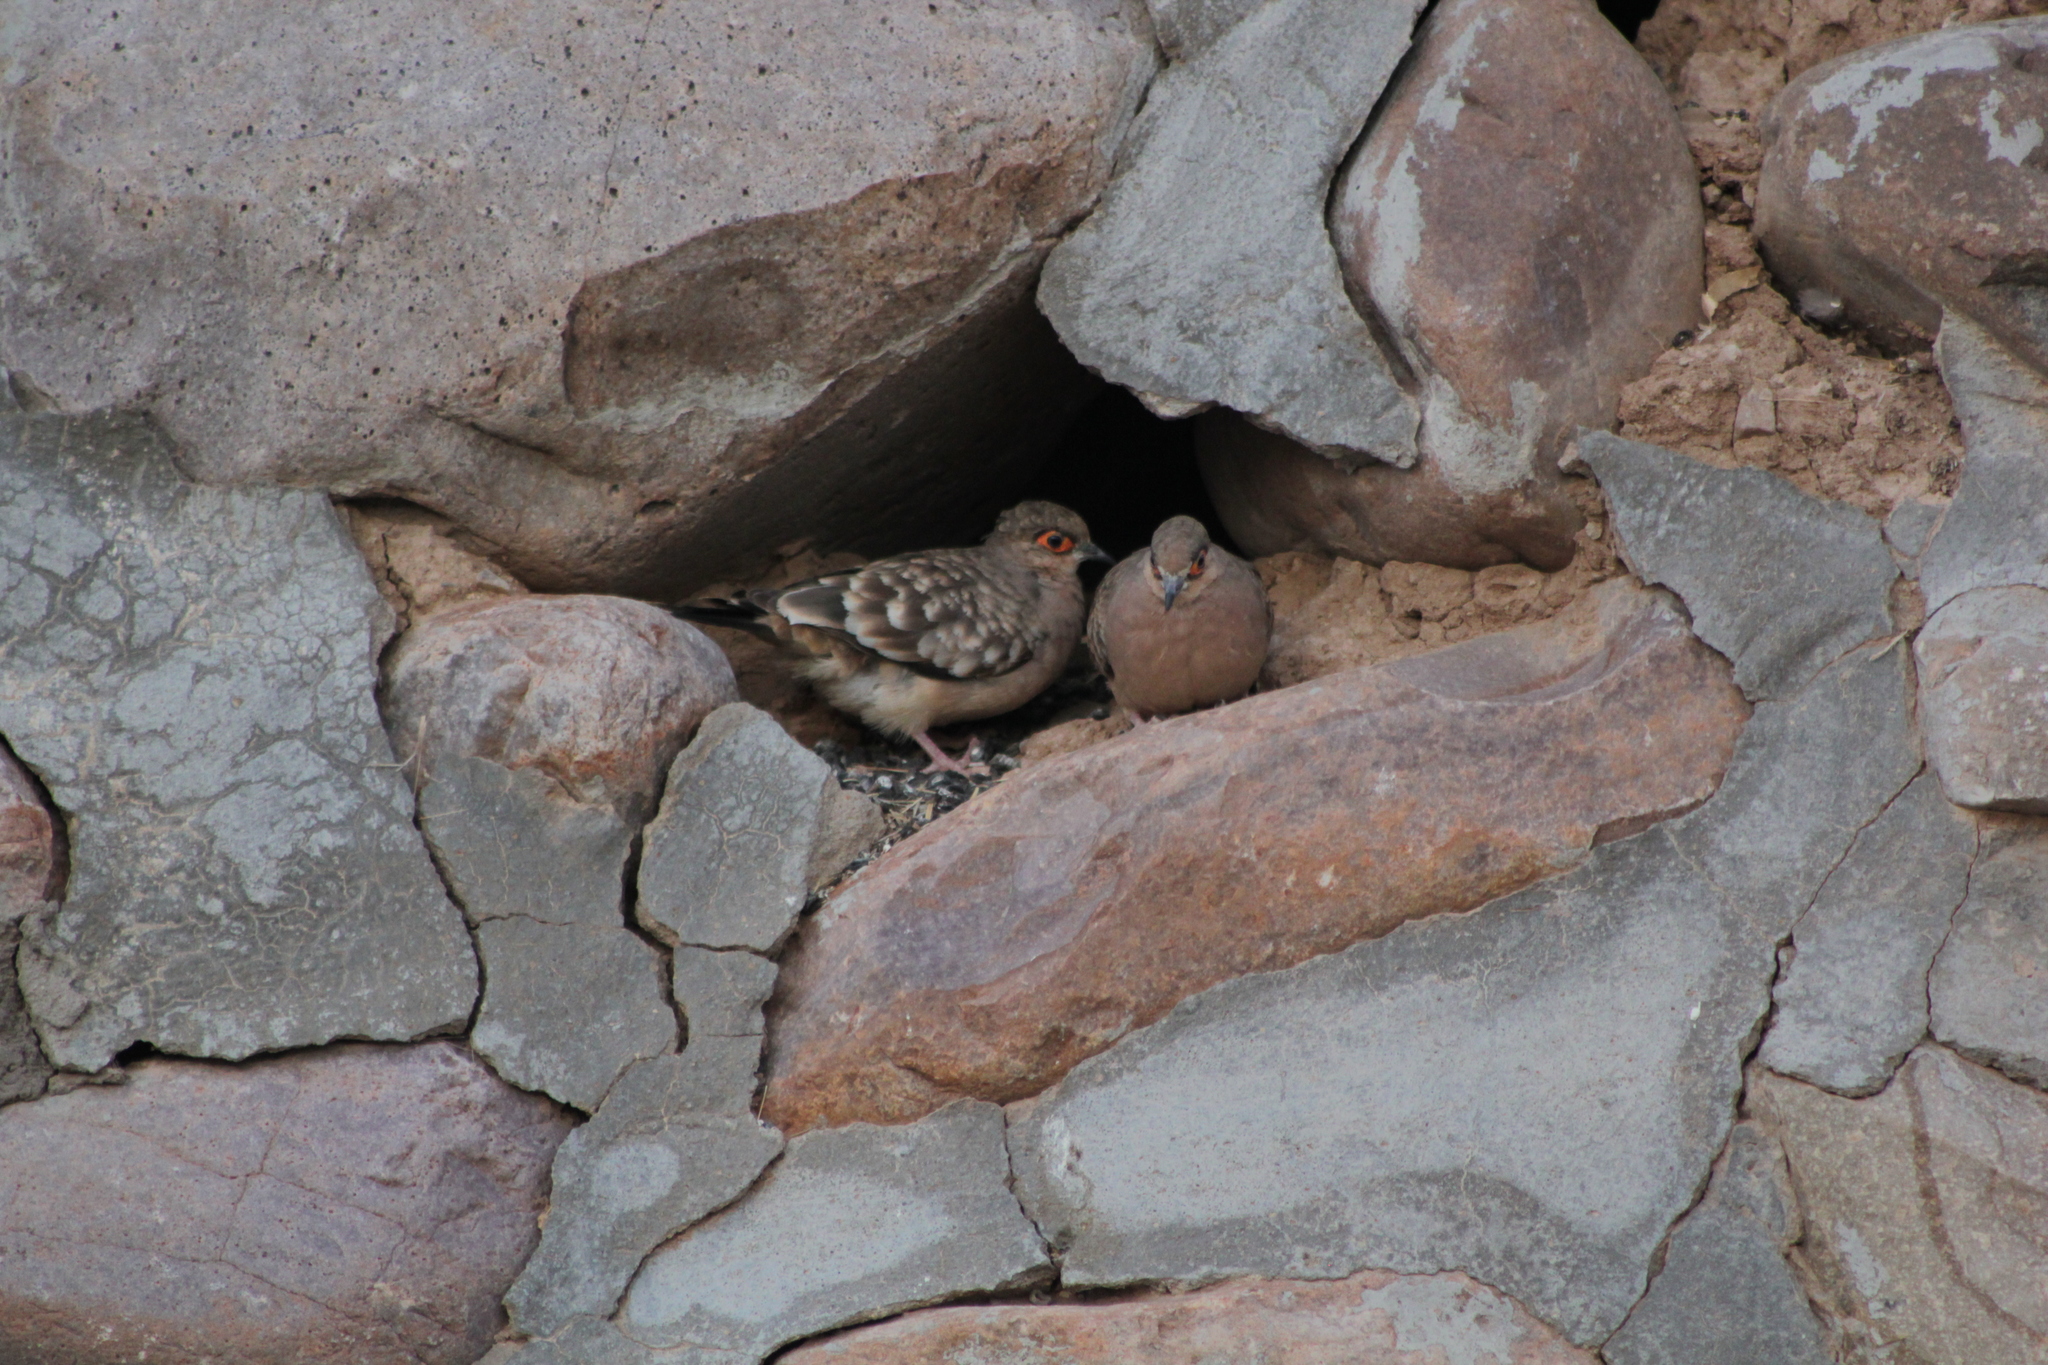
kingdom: Animalia
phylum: Chordata
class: Aves
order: Columbiformes
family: Columbidae
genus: Metriopelia
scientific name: Metriopelia ceciliae
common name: Bare-faced ground dove
